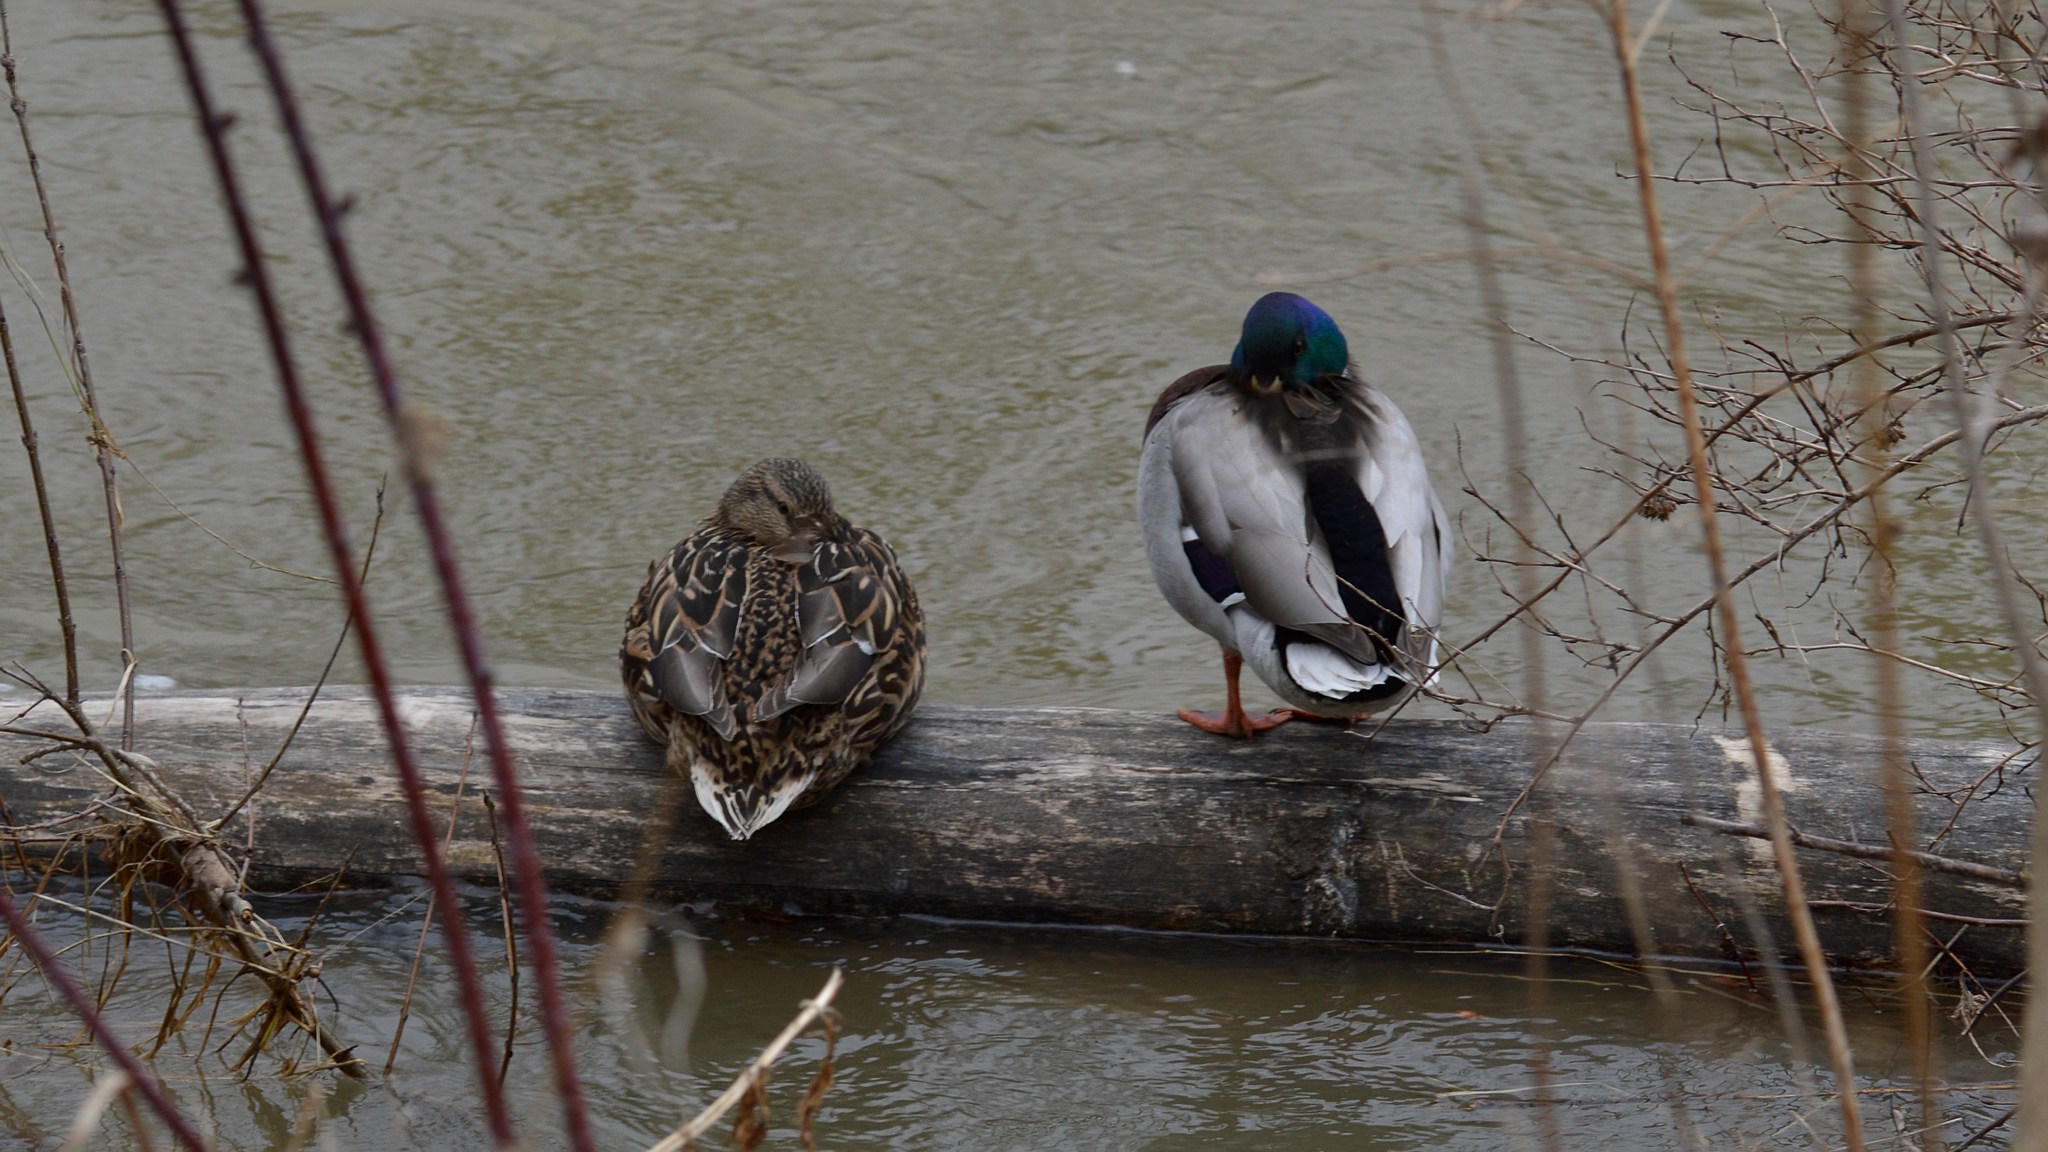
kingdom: Animalia
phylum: Chordata
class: Aves
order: Anseriformes
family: Anatidae
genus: Anas
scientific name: Anas platyrhynchos
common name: Mallard
